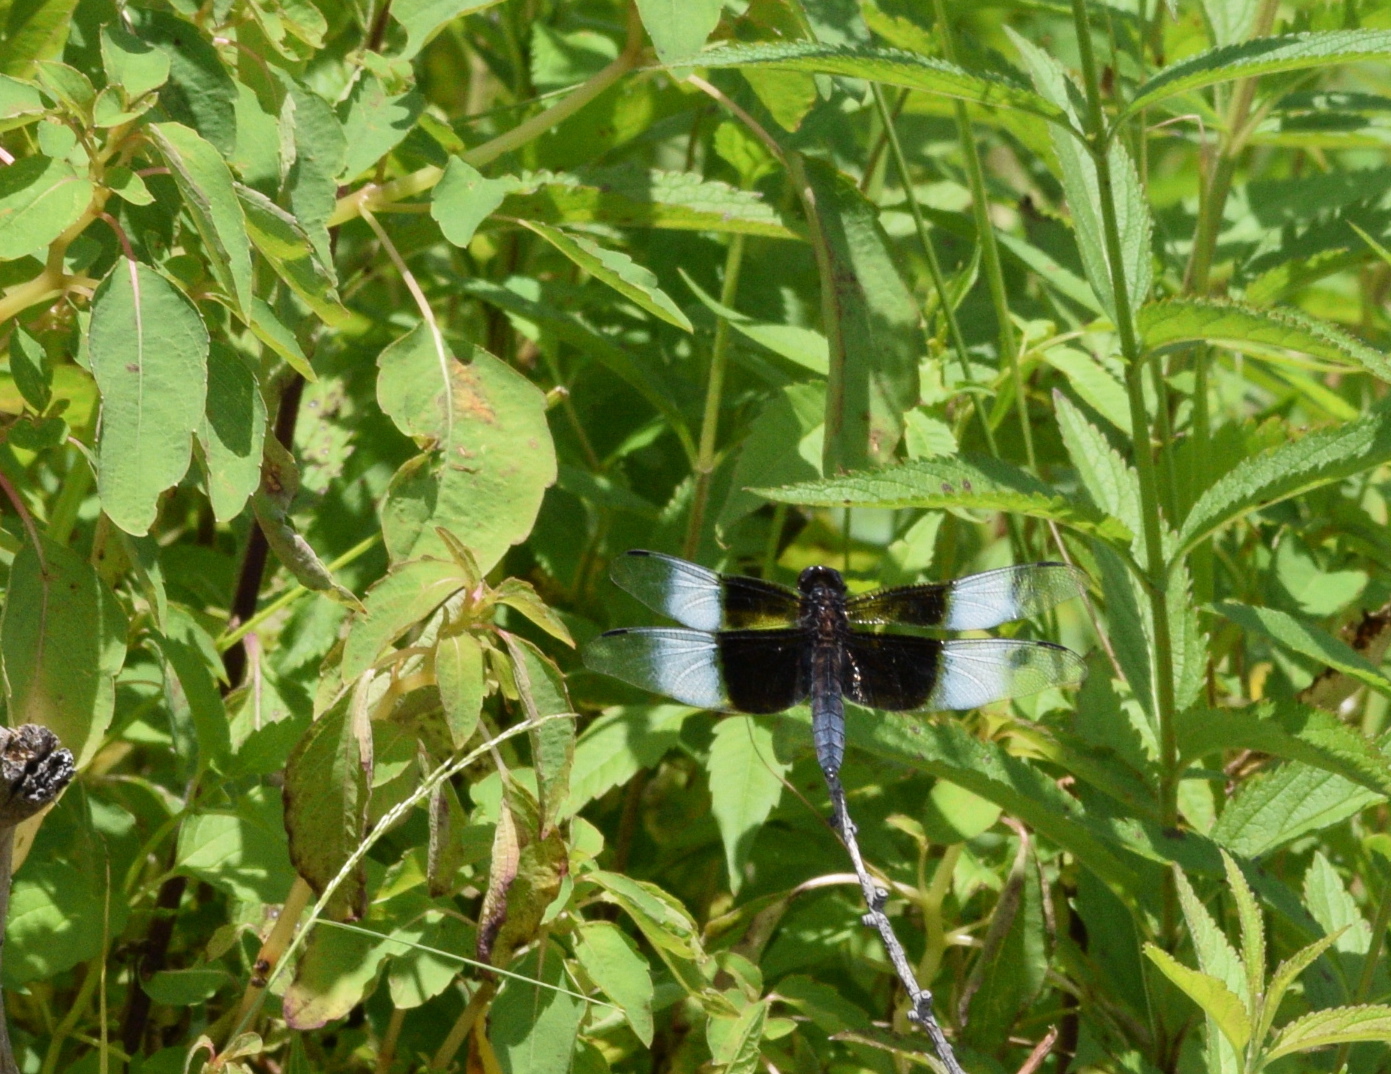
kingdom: Animalia
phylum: Arthropoda
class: Insecta
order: Odonata
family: Libellulidae
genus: Libellula
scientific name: Libellula luctuosa
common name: Widow skimmer
